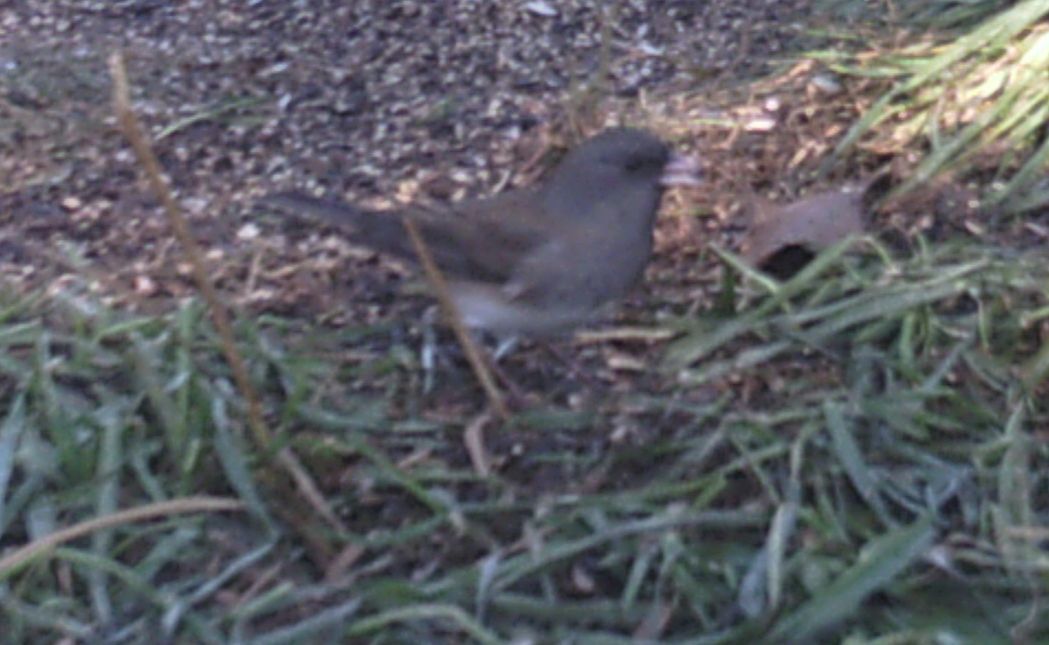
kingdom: Animalia
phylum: Chordata
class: Aves
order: Passeriformes
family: Passerellidae
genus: Junco
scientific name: Junco hyemalis
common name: Dark-eyed junco
